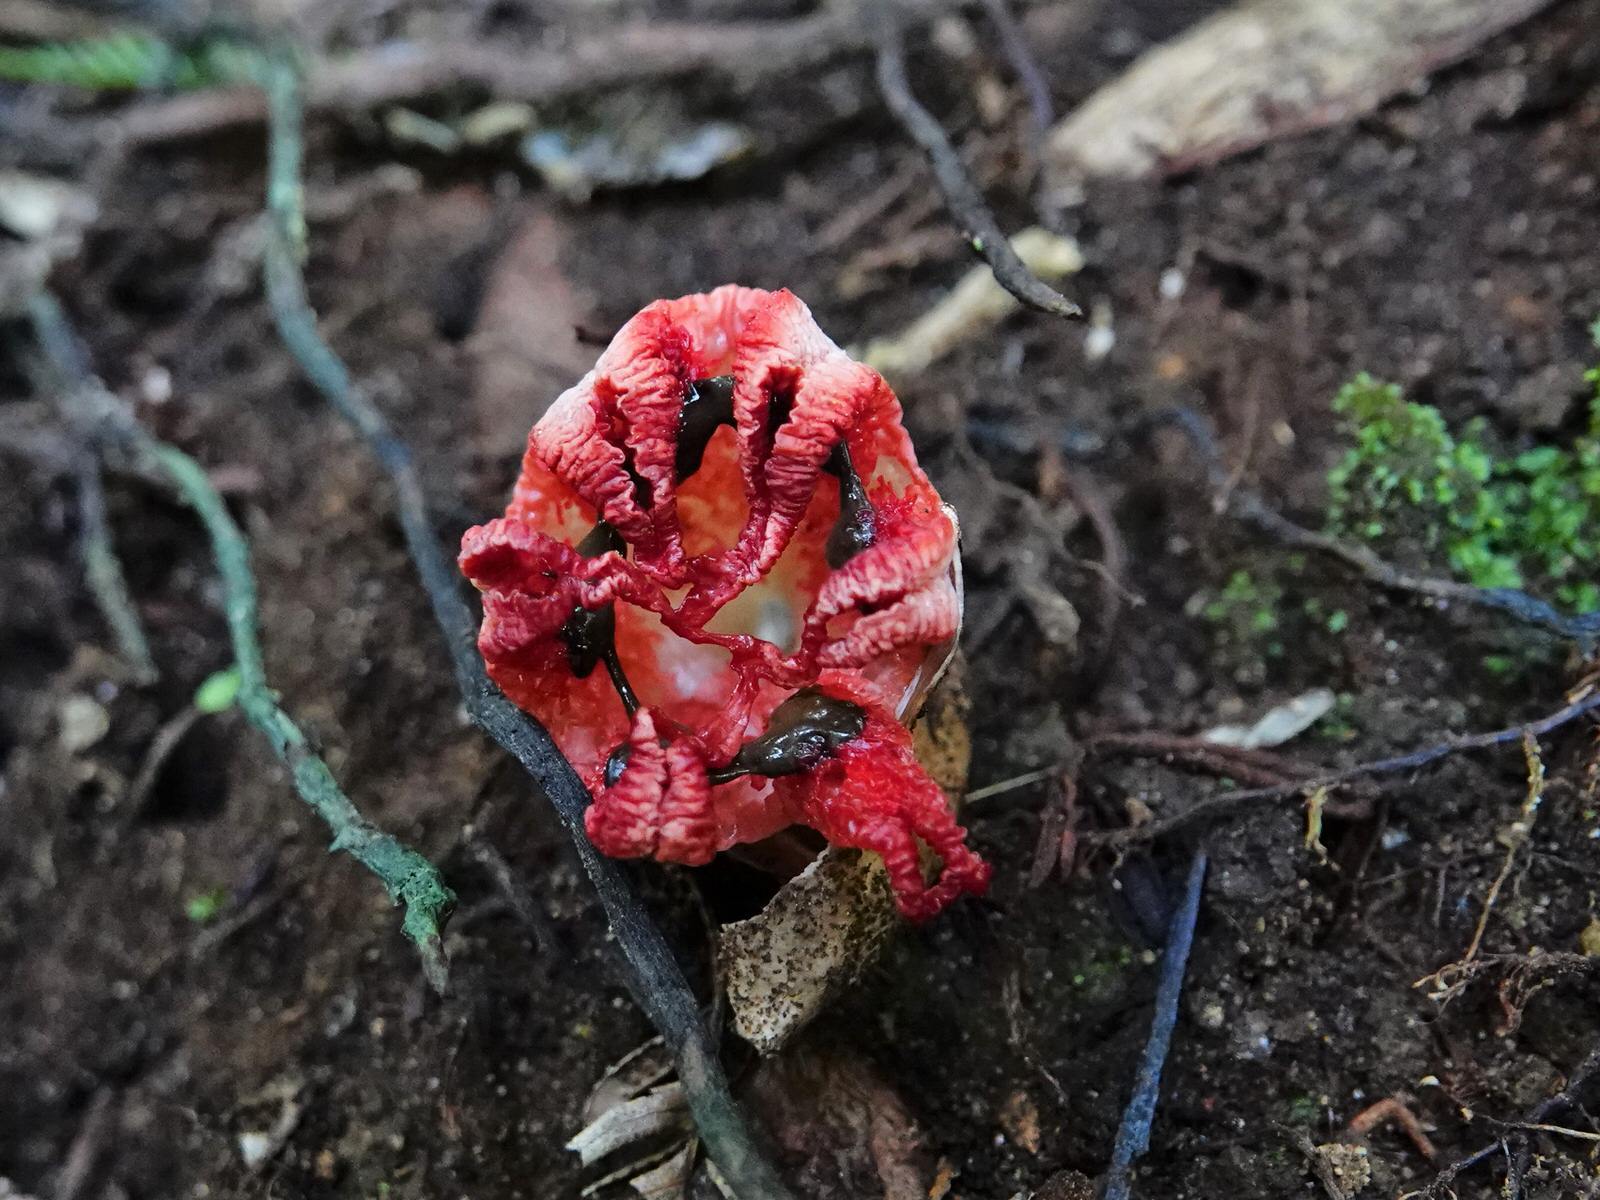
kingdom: Fungi
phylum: Basidiomycota
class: Agaricomycetes
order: Phallales
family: Phallaceae
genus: Clathrus
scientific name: Clathrus archeri
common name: Devil's fingers
